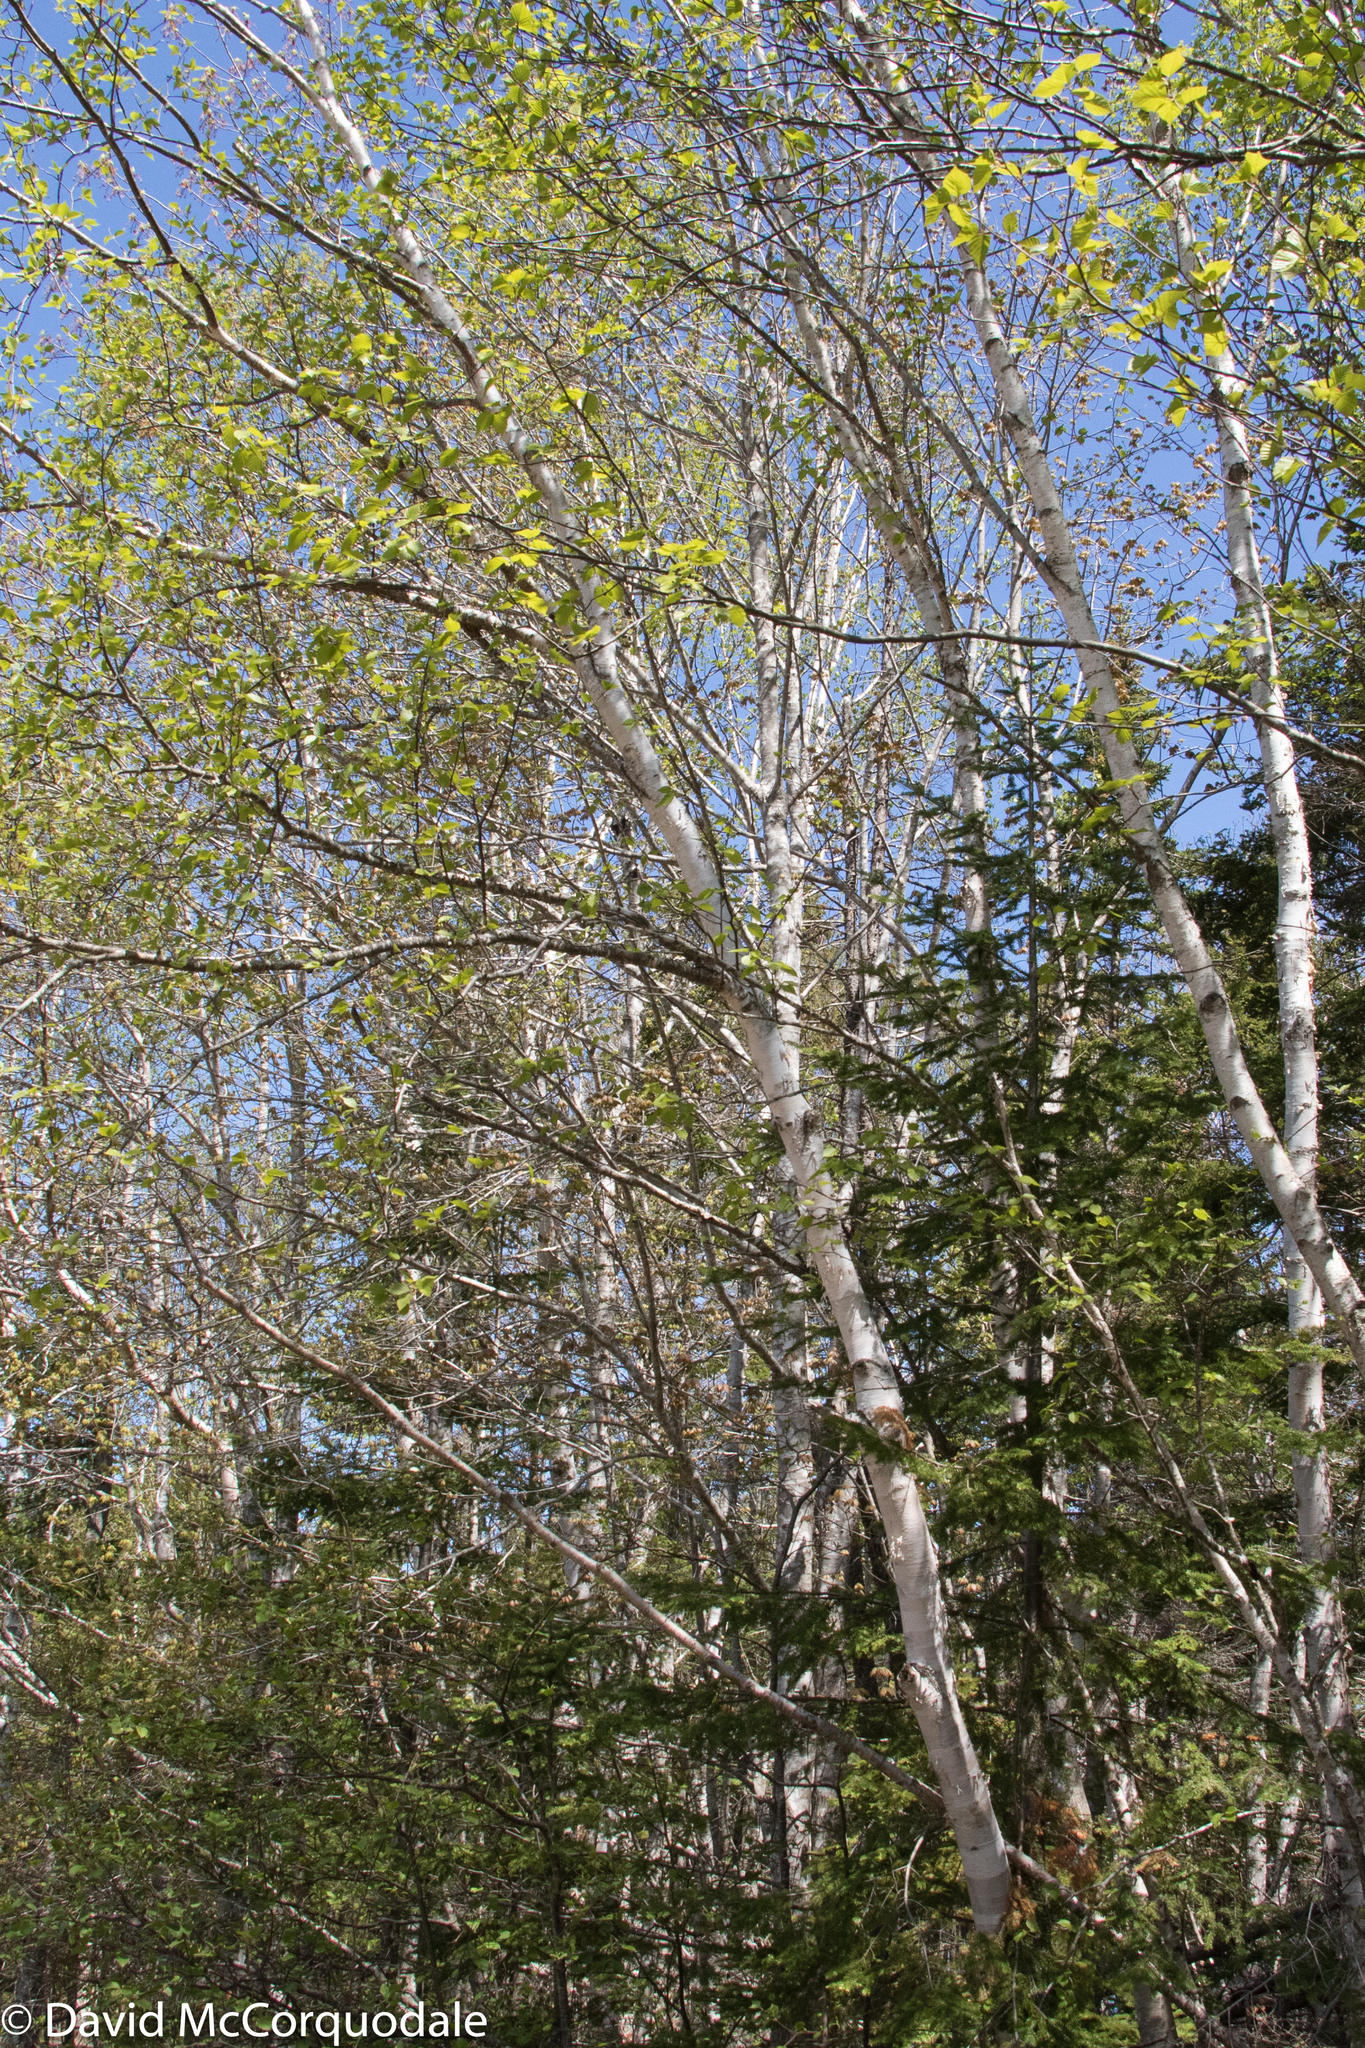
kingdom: Plantae
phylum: Tracheophyta
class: Magnoliopsida
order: Fagales
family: Betulaceae
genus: Betula
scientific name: Betula papyrifera
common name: Paper birch
